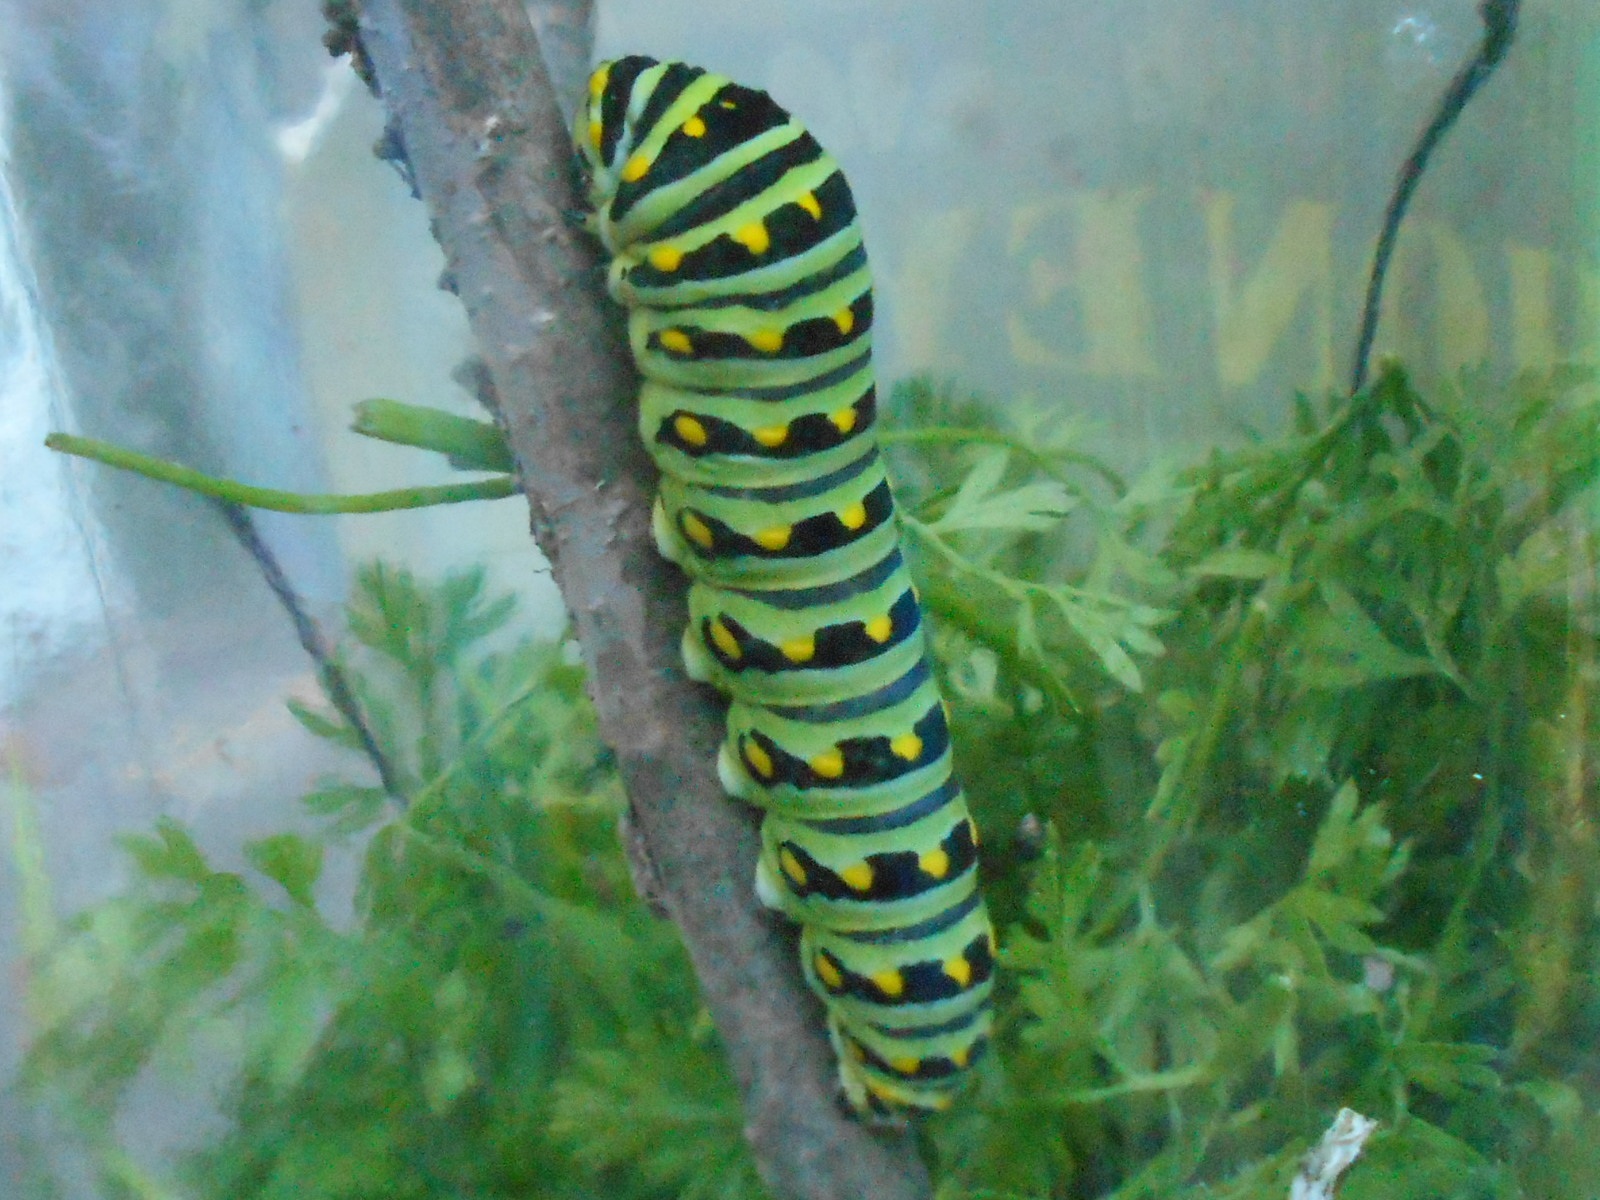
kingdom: Animalia
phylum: Arthropoda
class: Insecta
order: Lepidoptera
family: Papilionidae
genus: Papilio
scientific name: Papilio polyxenes
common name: Black swallowtail
